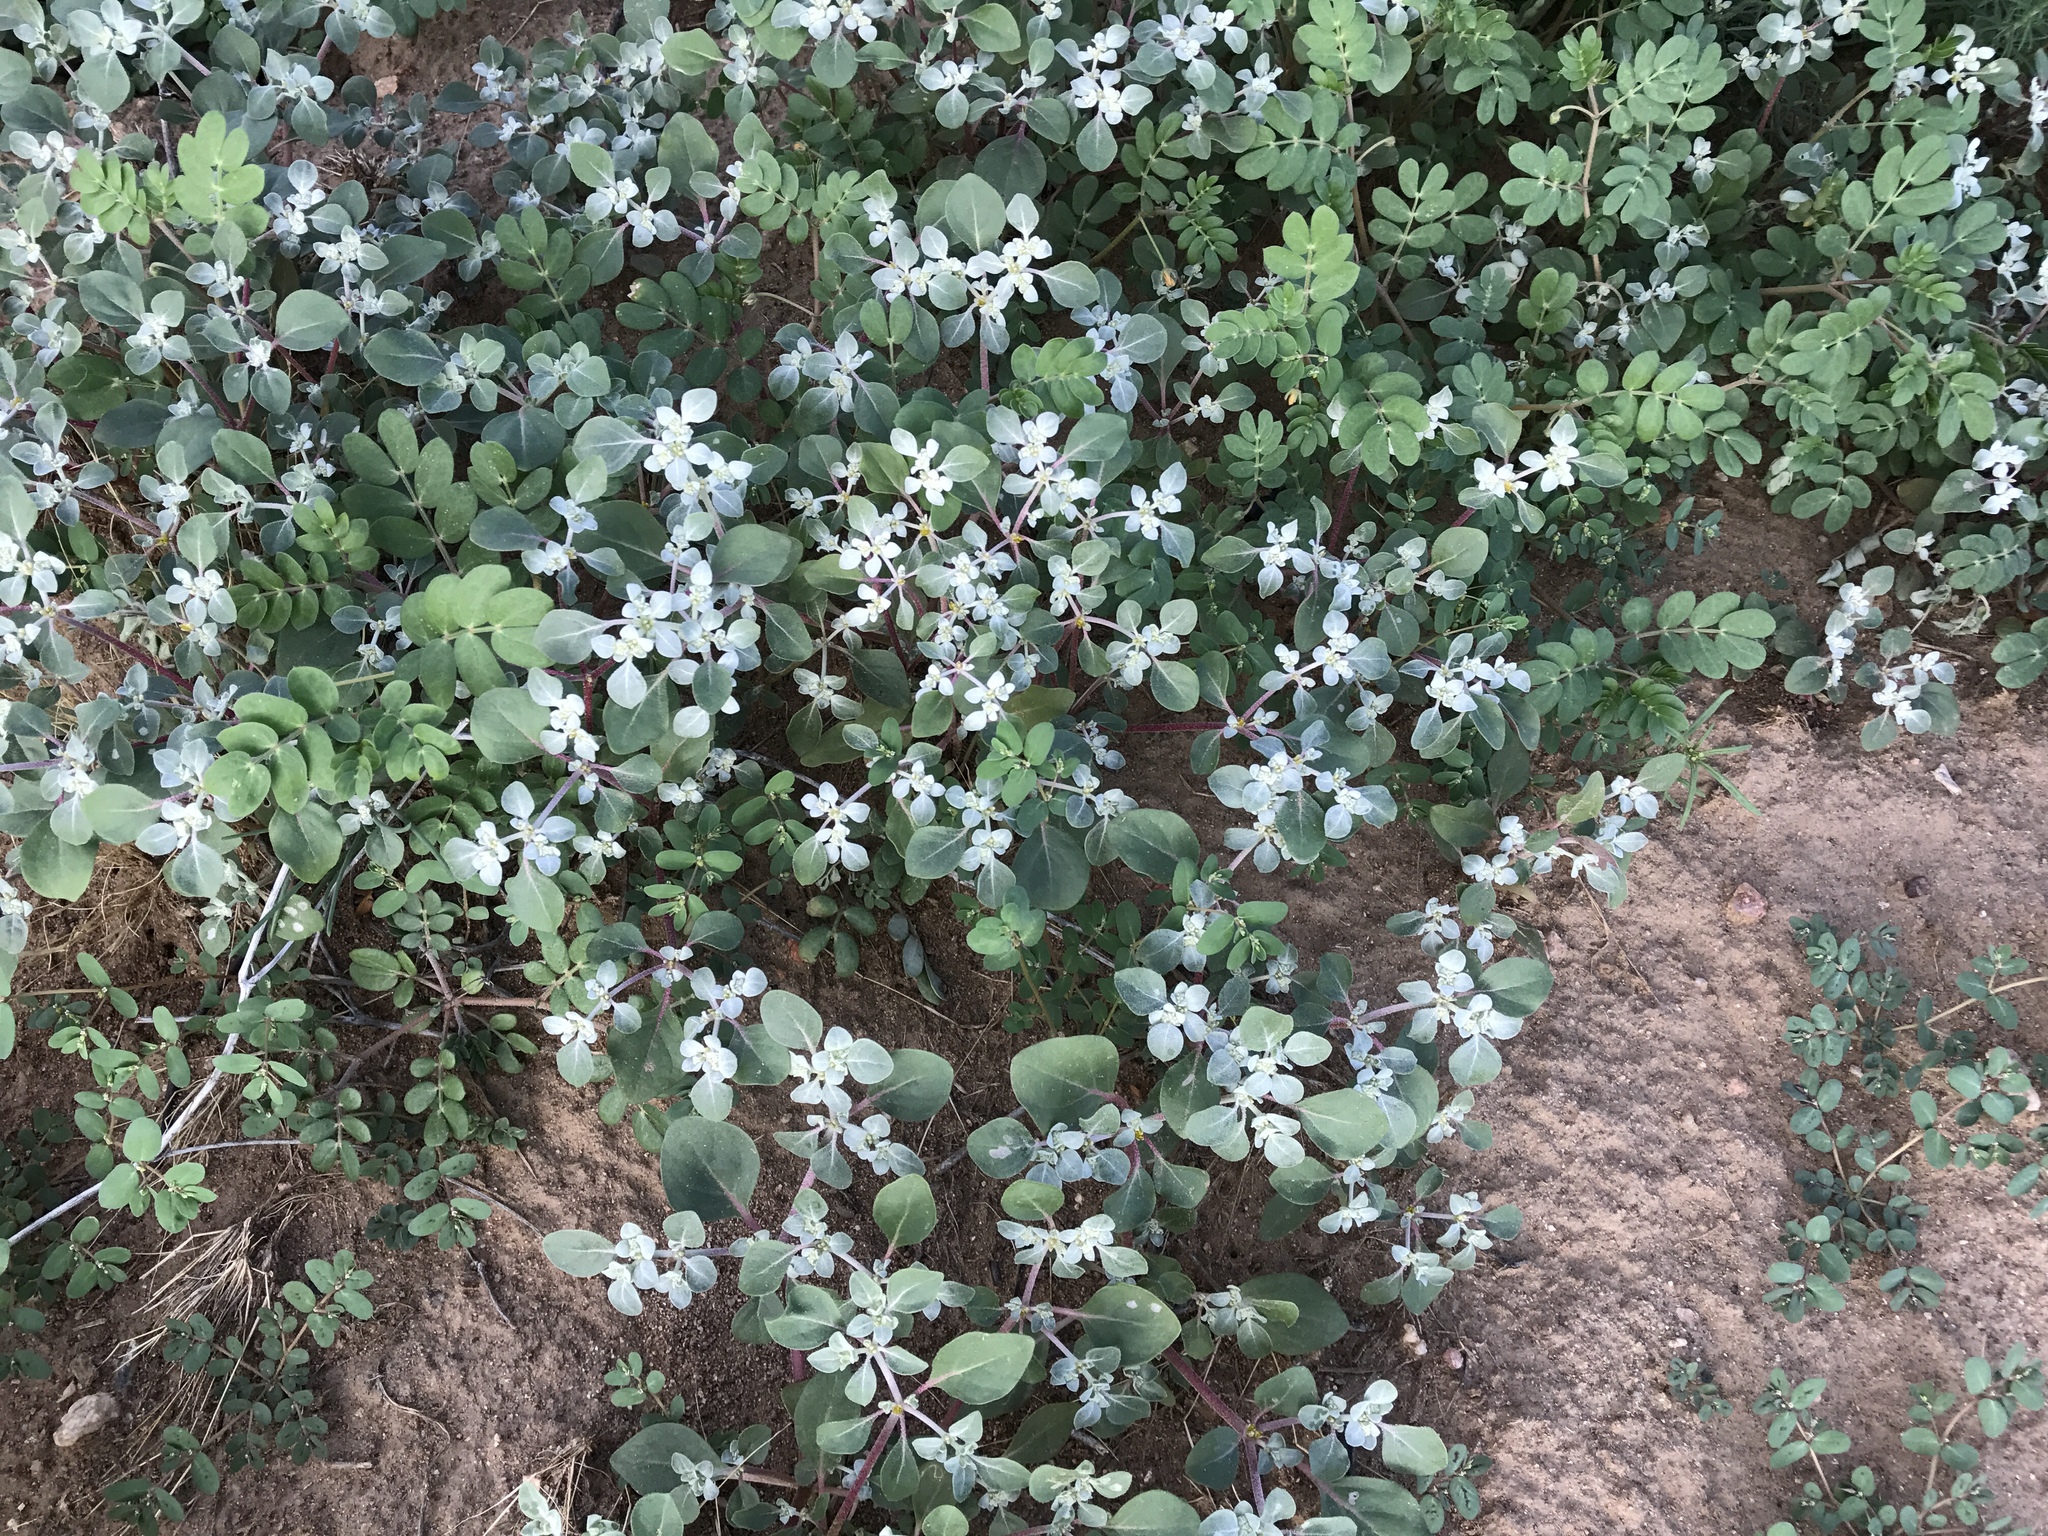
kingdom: Plantae
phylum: Tracheophyta
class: Magnoliopsida
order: Caryophyllales
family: Amaranthaceae
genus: Tidestromia
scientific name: Tidestromia lanuginosa
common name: Woolly tidestromia
